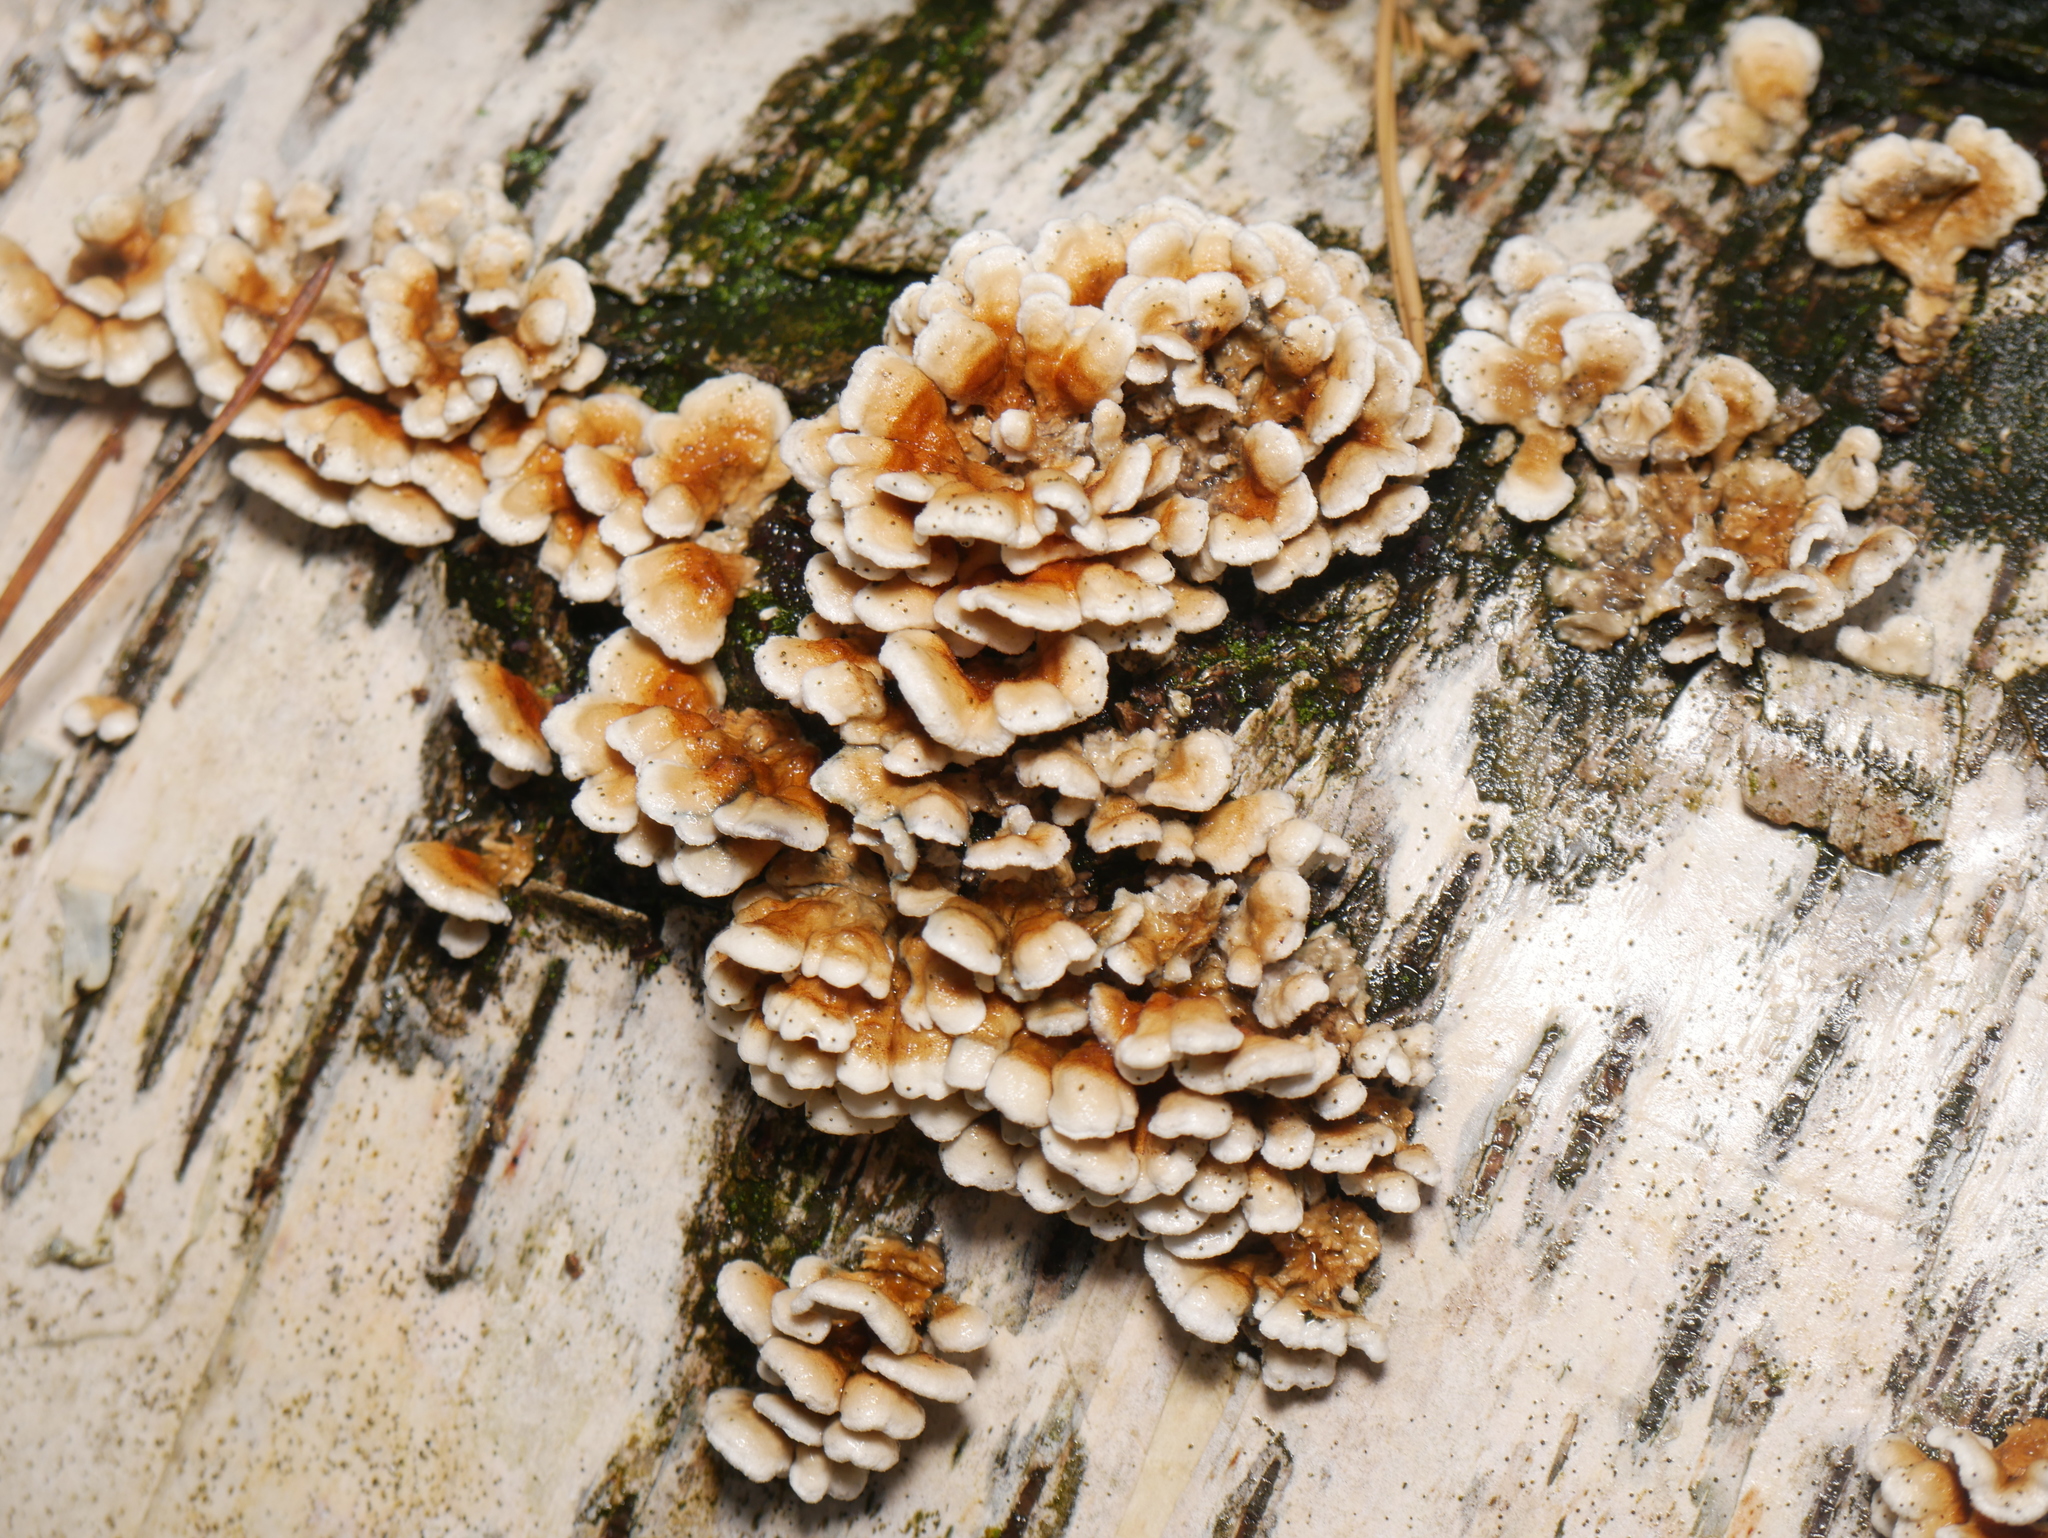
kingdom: Fungi
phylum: Basidiomycota
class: Agaricomycetes
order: Amylocorticiales
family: Amylocorticiaceae
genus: Plicaturopsis
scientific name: Plicaturopsis crispa
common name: Crimped gill
